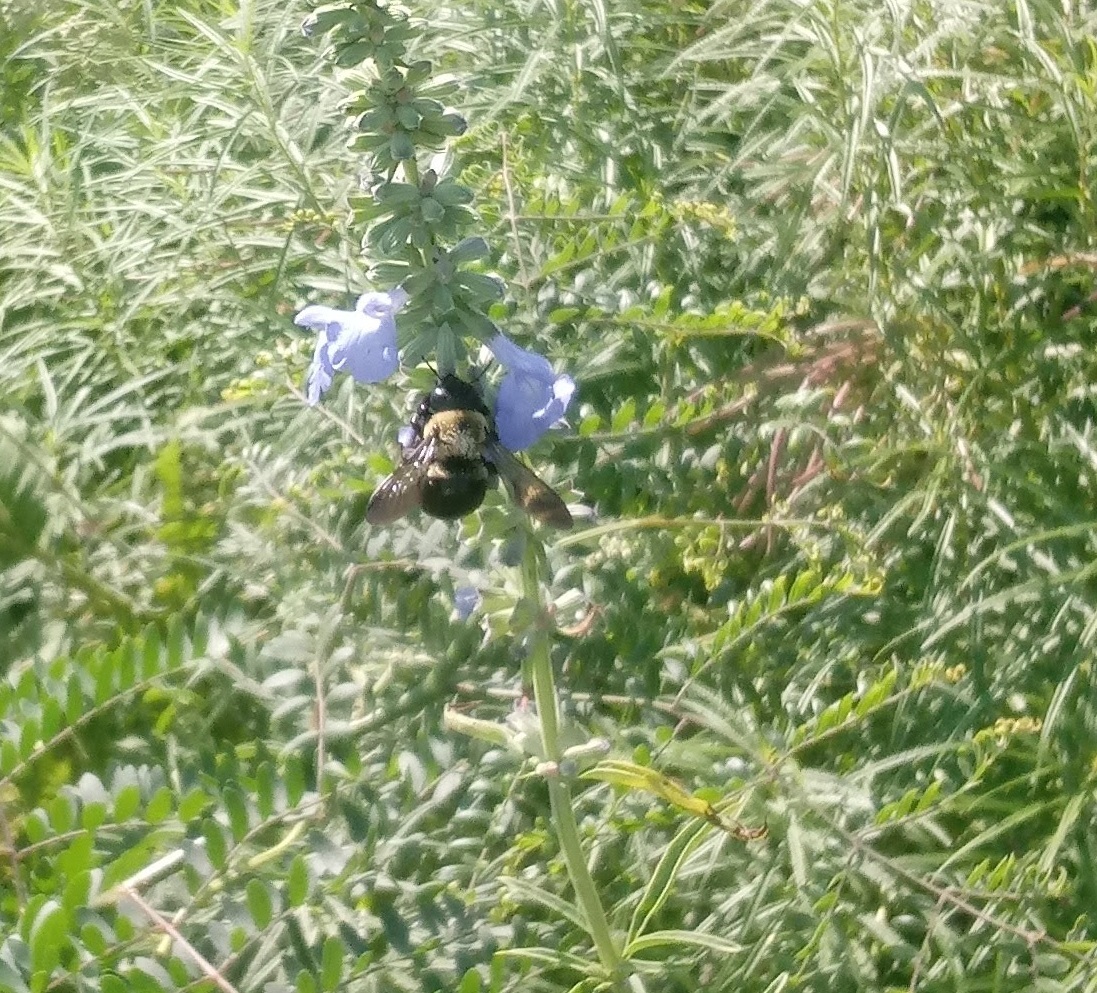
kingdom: Animalia
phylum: Arthropoda
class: Insecta
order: Hymenoptera
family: Apidae
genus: Xylocopa
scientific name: Xylocopa virginica
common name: Carpenter bee
